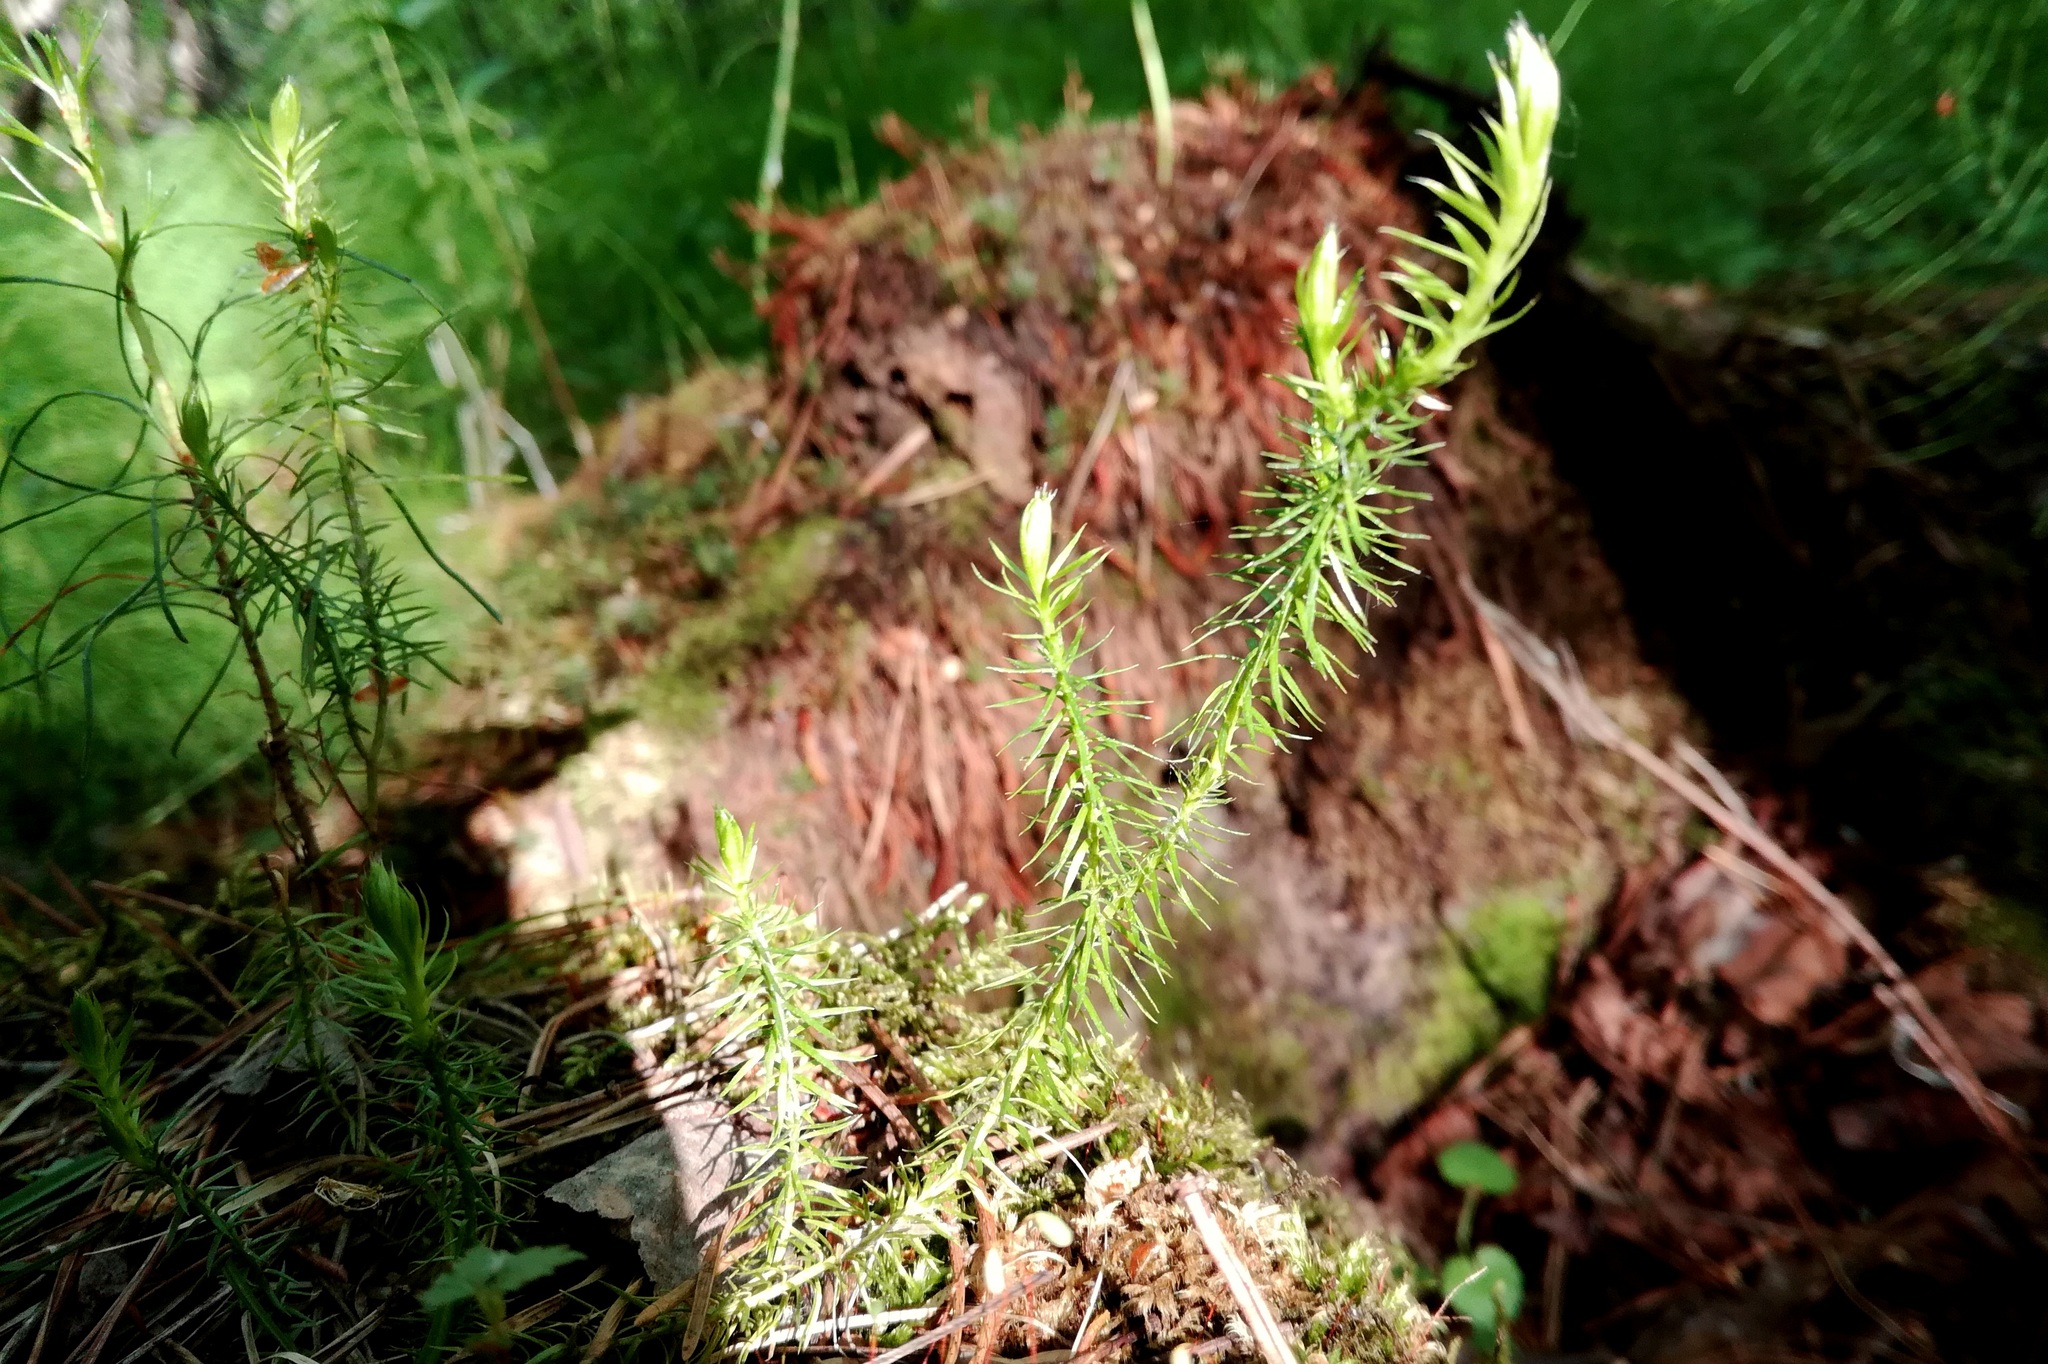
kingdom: Plantae
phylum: Tracheophyta
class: Lycopodiopsida
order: Lycopodiales
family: Lycopodiaceae
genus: Spinulum
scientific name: Spinulum annotinum
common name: Interrupted club-moss
